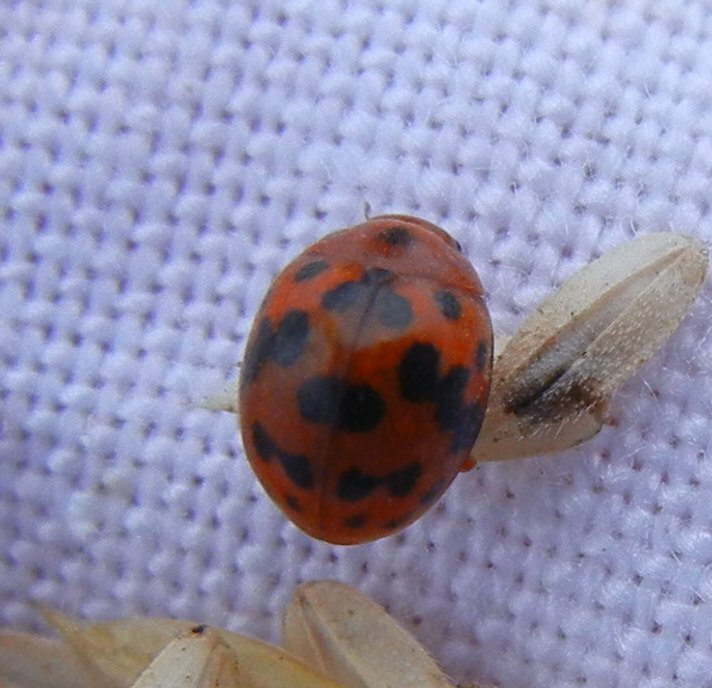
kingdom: Animalia
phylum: Arthropoda
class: Insecta
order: Coleoptera
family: Coccinellidae
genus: Subcoccinella
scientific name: Subcoccinella vigintiquatuorpunctata
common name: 24-spot ladybird
